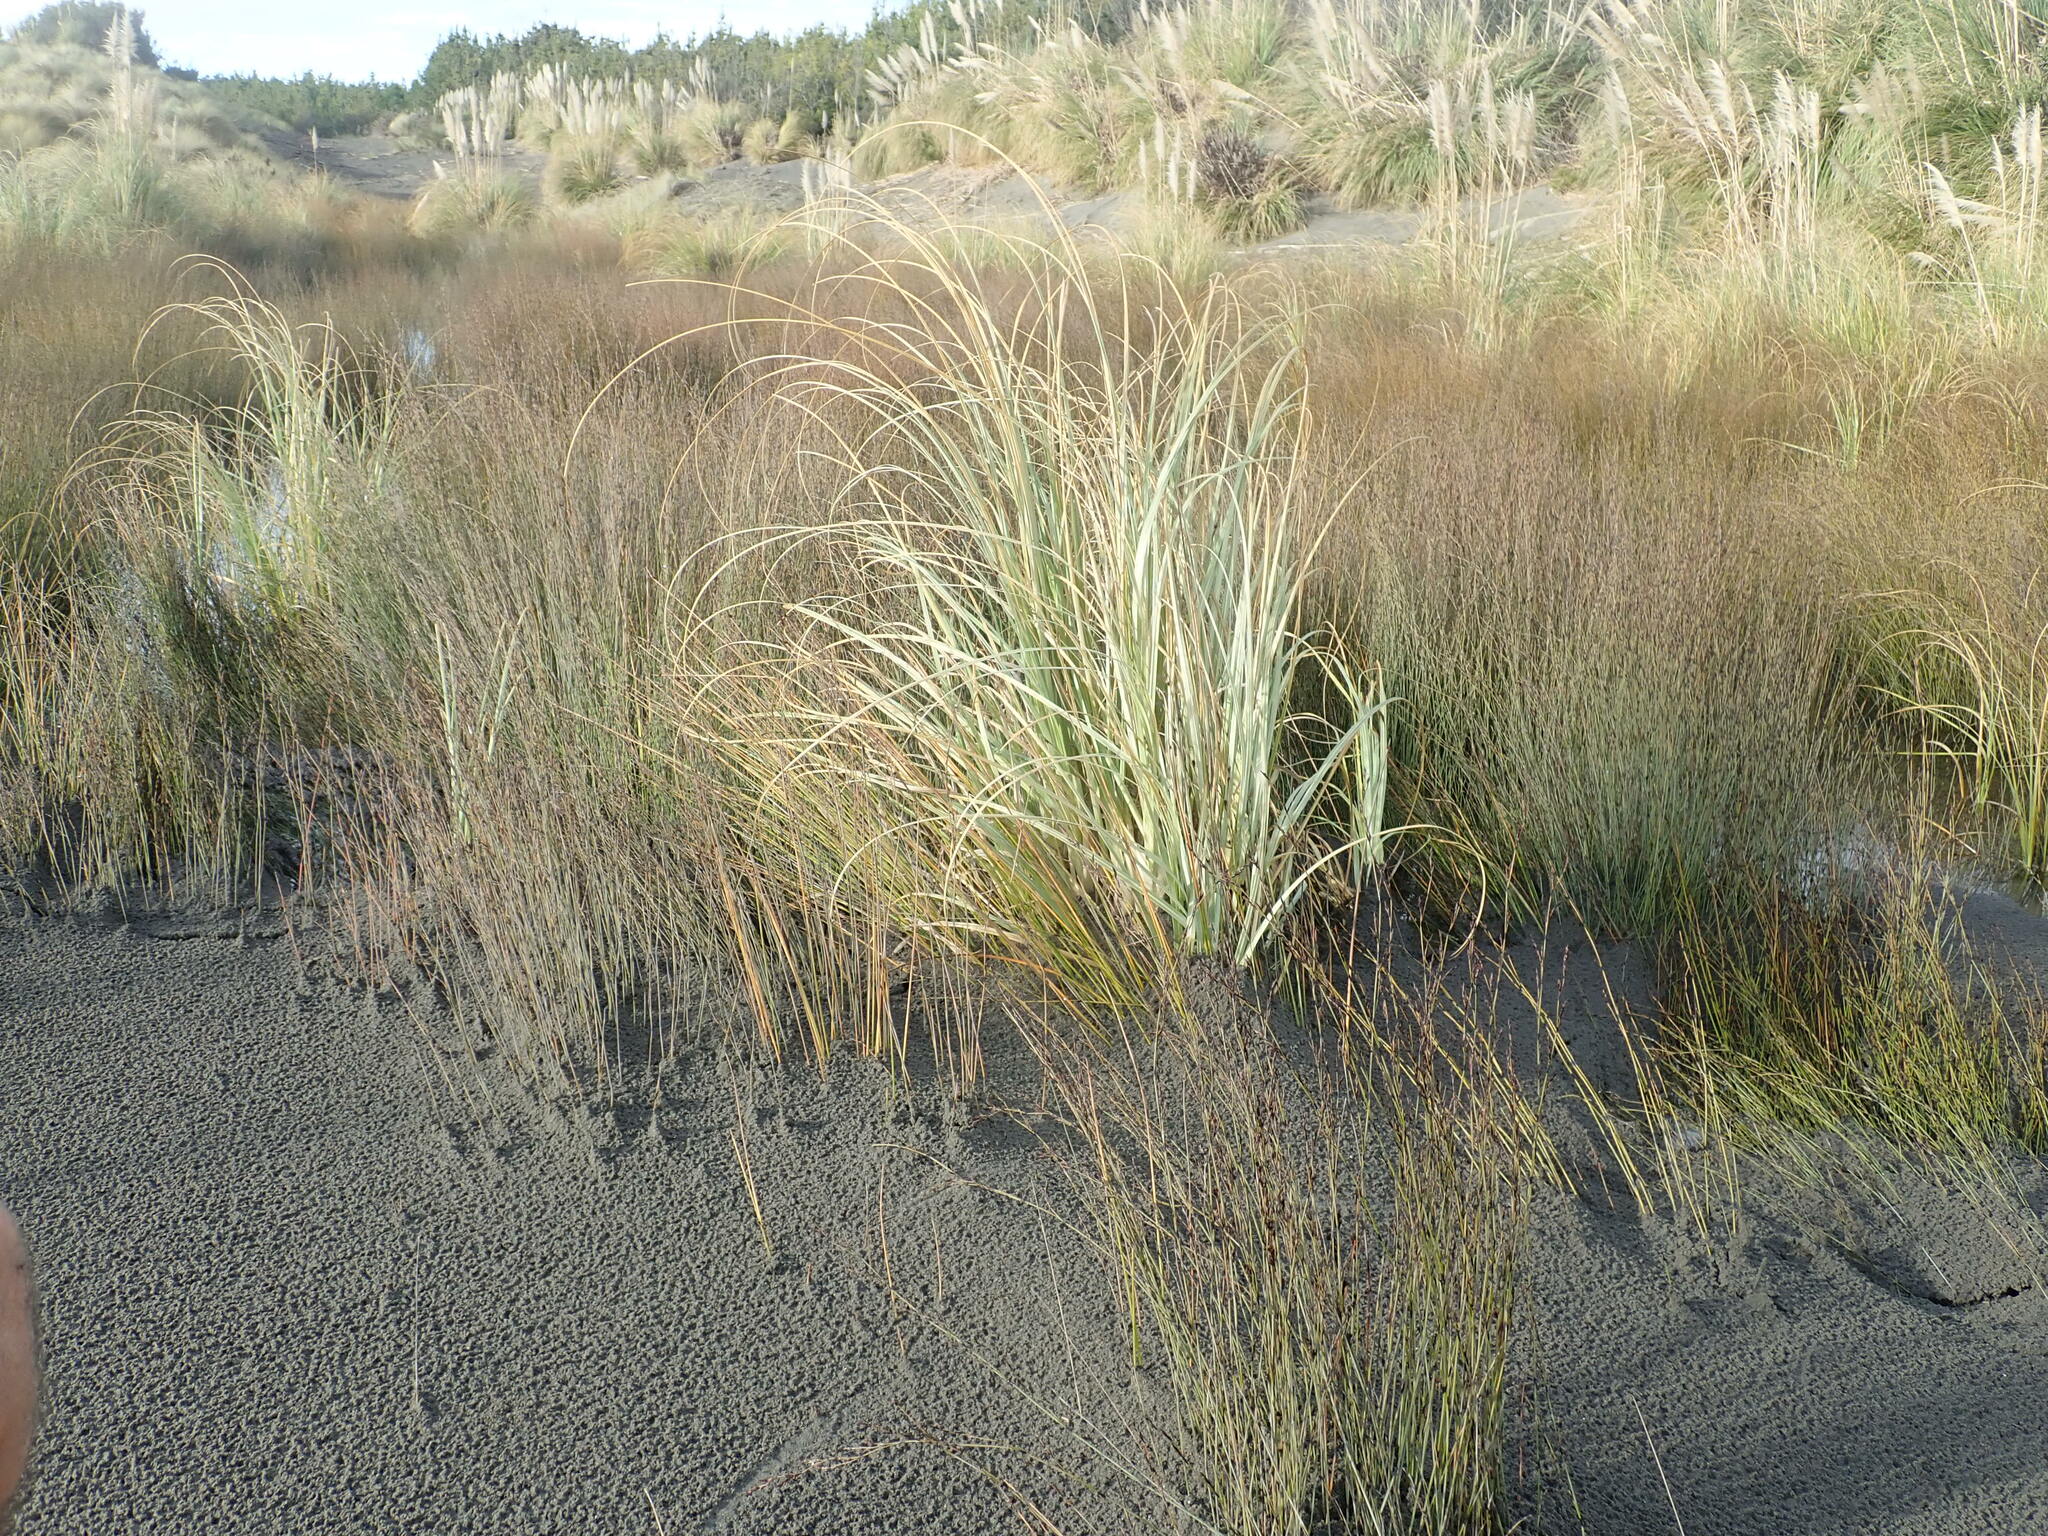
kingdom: Plantae
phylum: Tracheophyta
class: Liliopsida
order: Poales
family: Restionaceae
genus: Apodasmia
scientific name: Apodasmia similis
